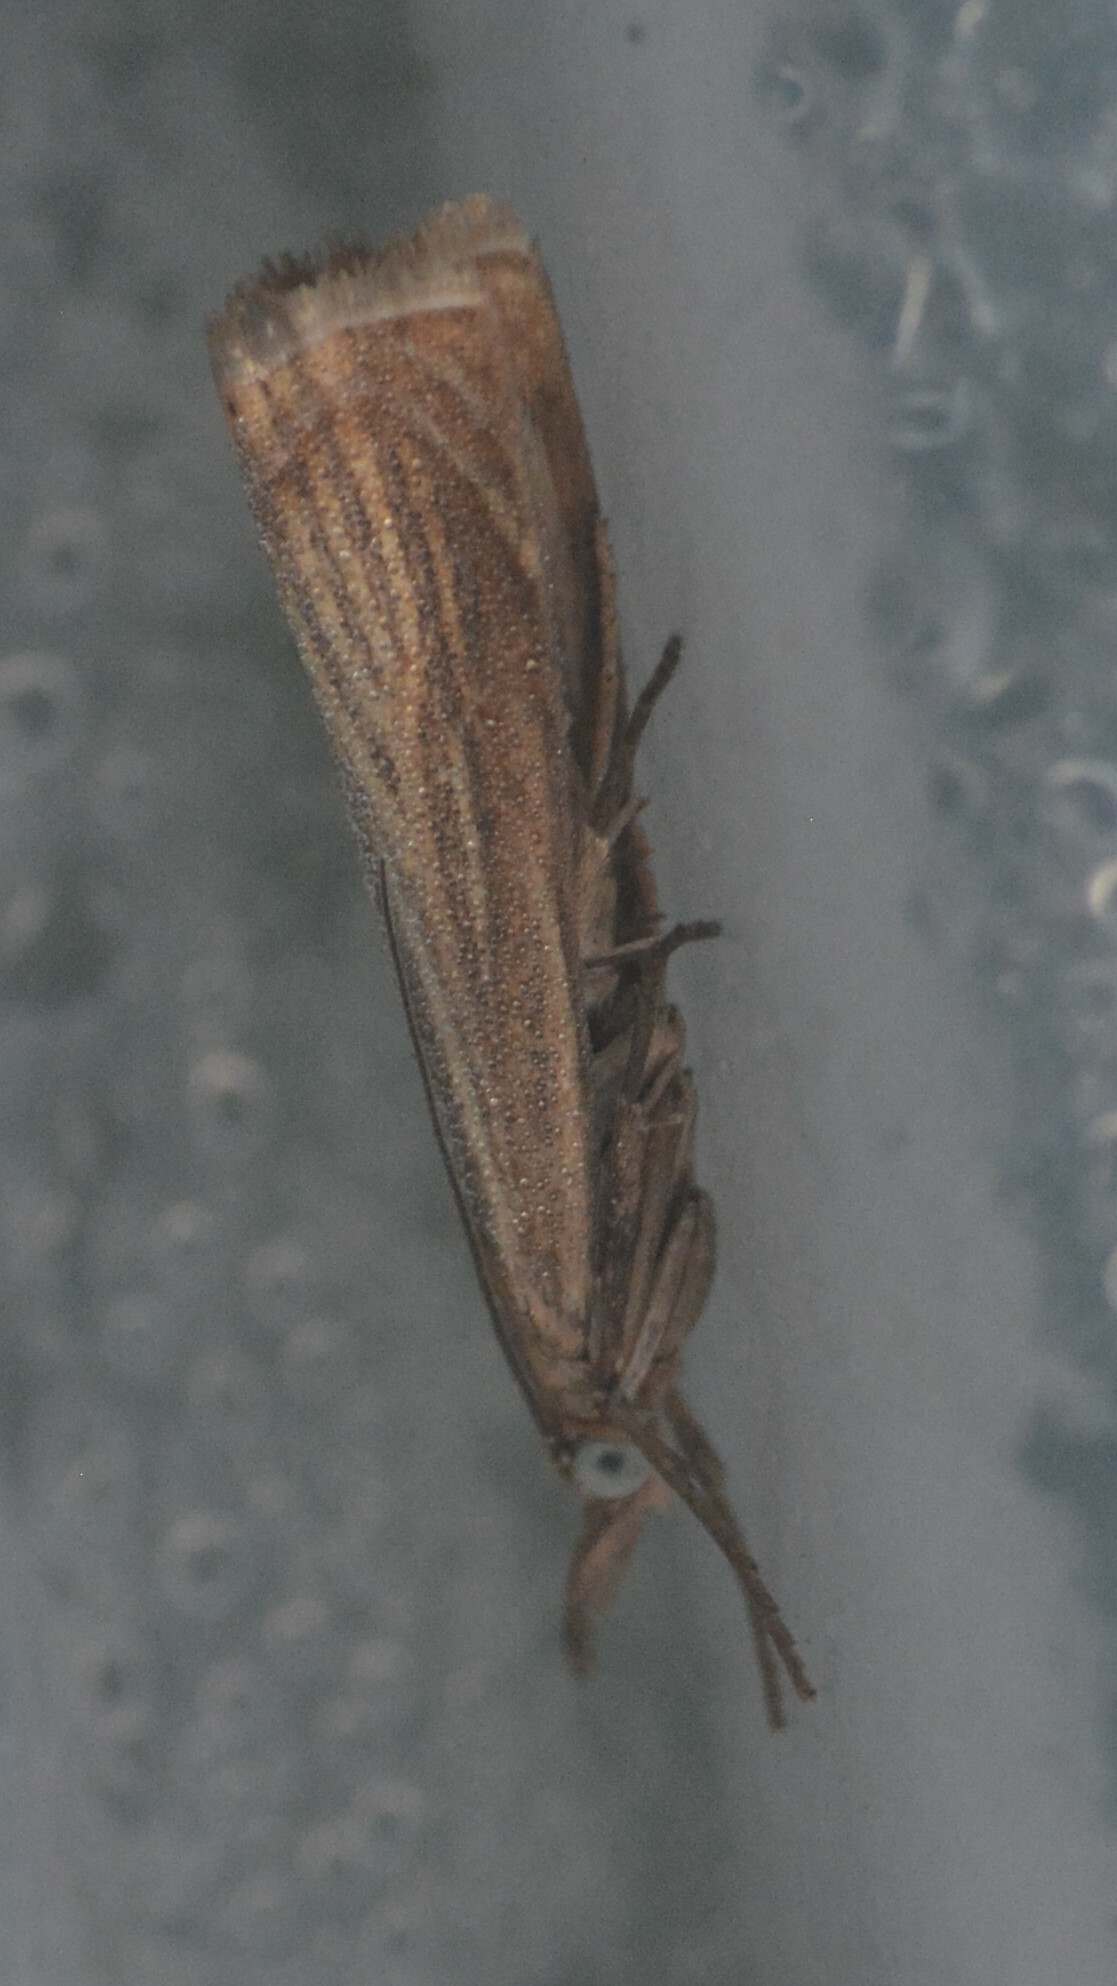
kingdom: Animalia
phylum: Arthropoda
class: Insecta
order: Lepidoptera
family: Crambidae
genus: Chrysoteuchia
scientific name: Chrysoteuchia culmella
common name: Garden grass-veneer
